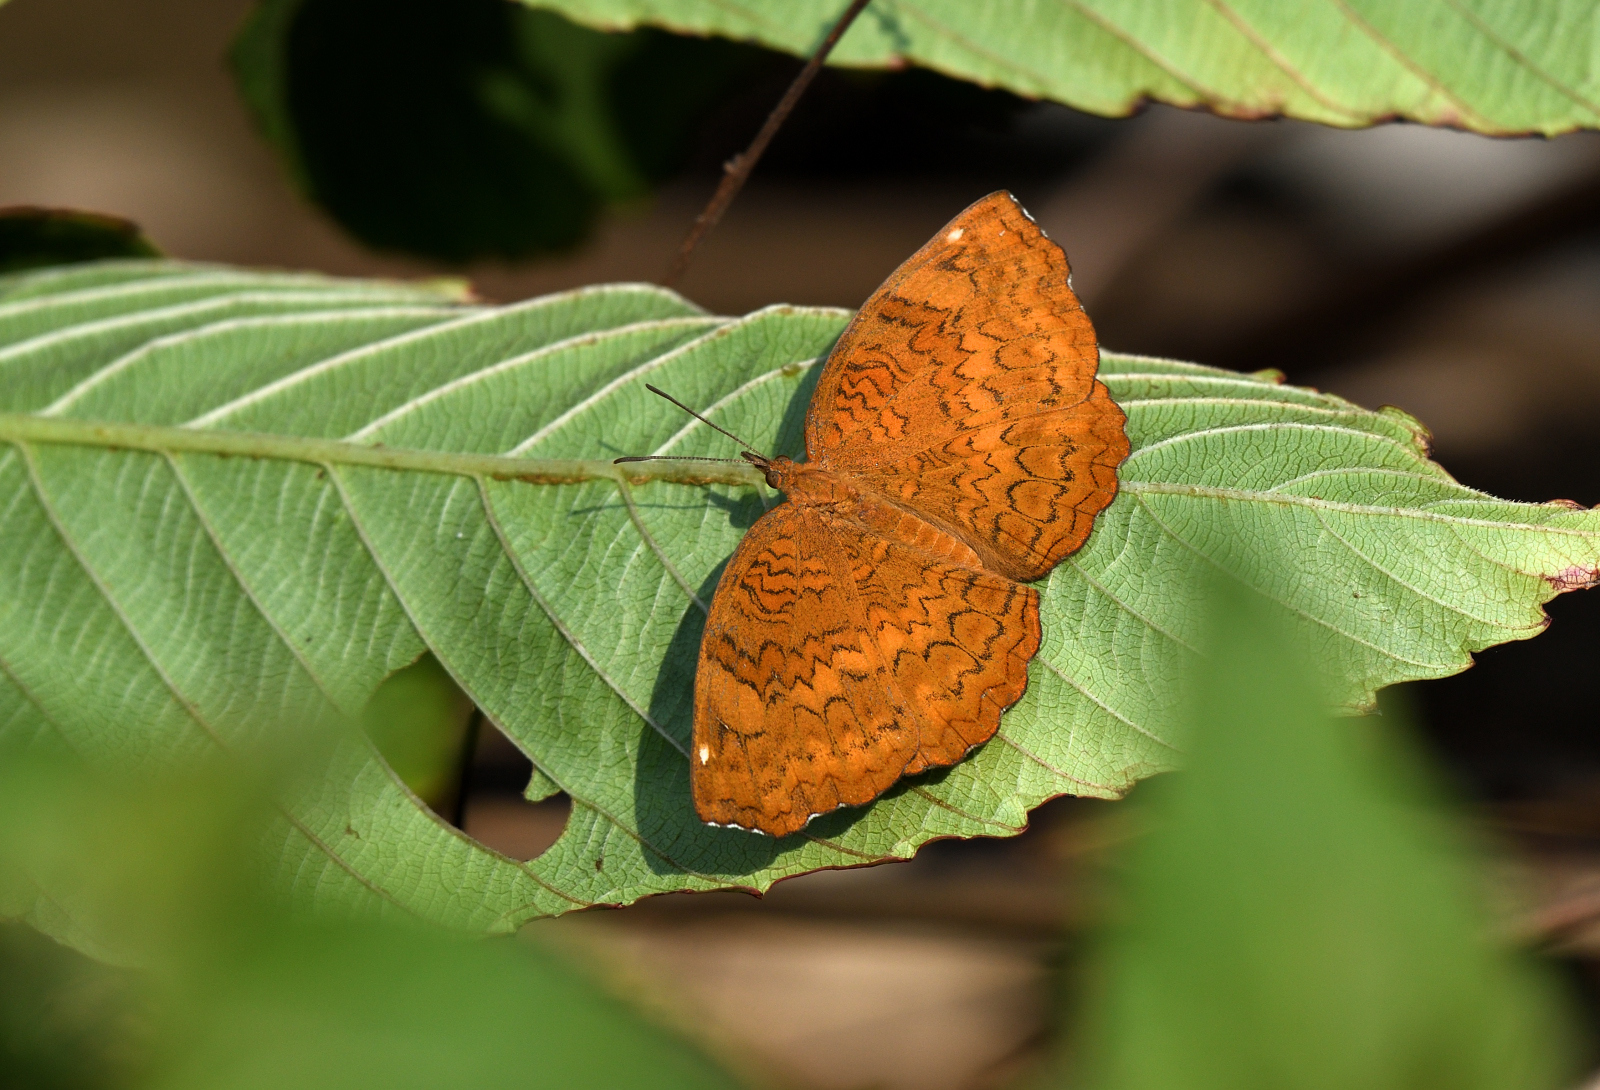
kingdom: Animalia
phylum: Arthropoda
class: Insecta
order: Lepidoptera
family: Nymphalidae
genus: Ariadne
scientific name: Ariadne merione
